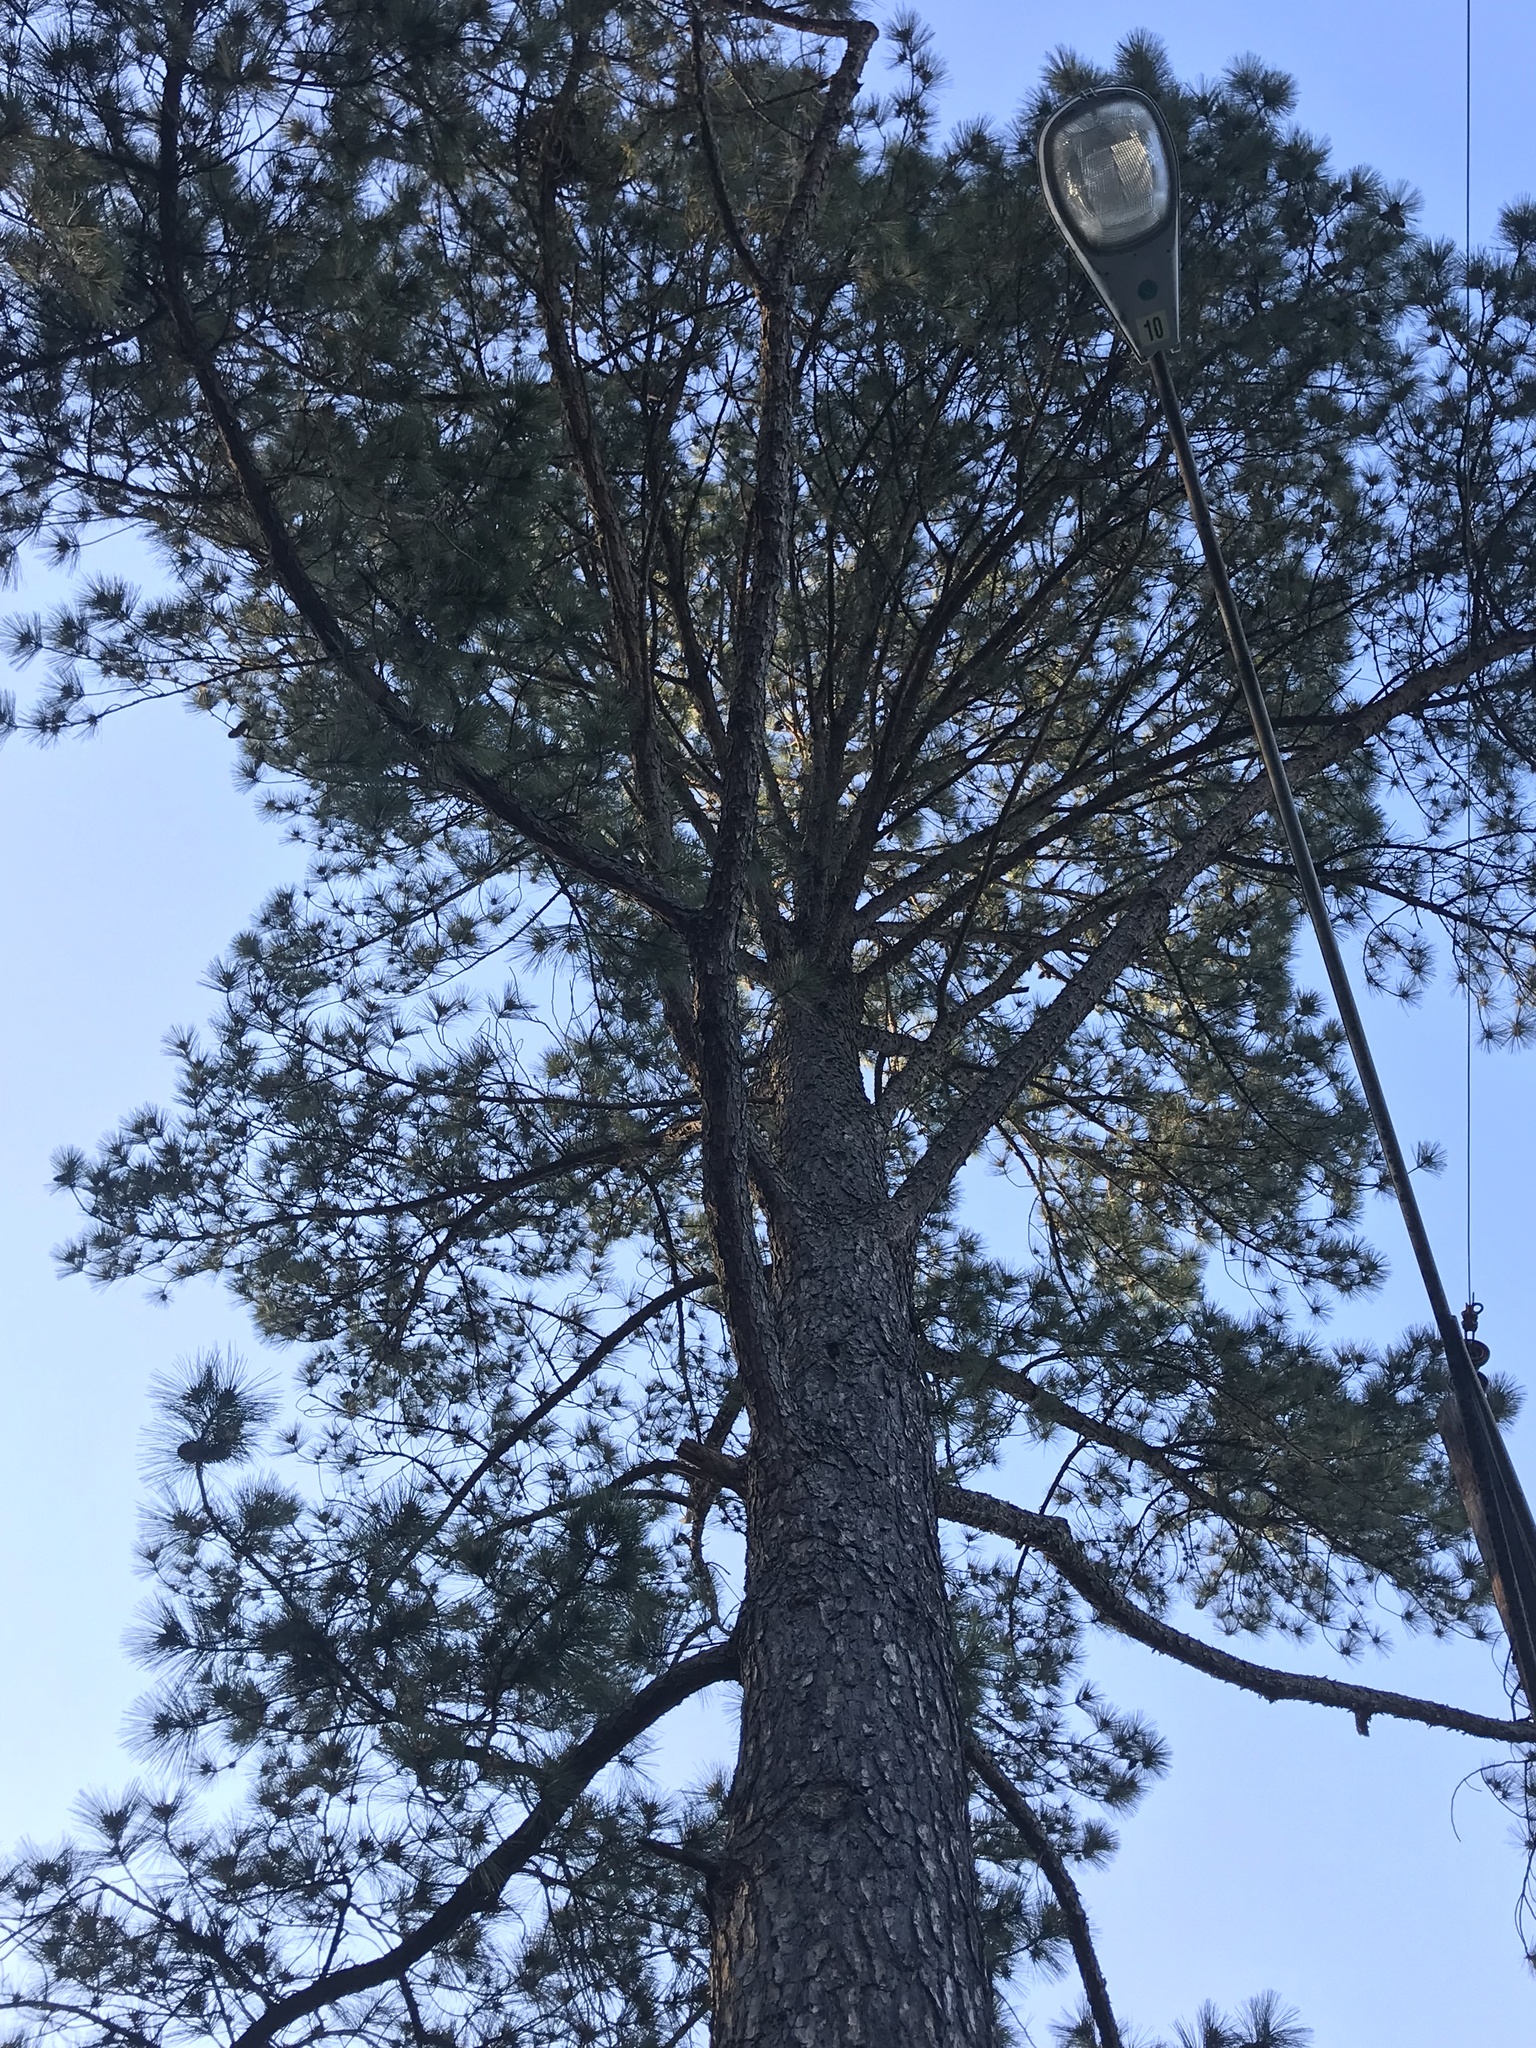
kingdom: Plantae
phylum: Tracheophyta
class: Pinopsida
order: Pinales
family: Pinaceae
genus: Pinus
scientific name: Pinus taeda
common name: Loblolly pine
